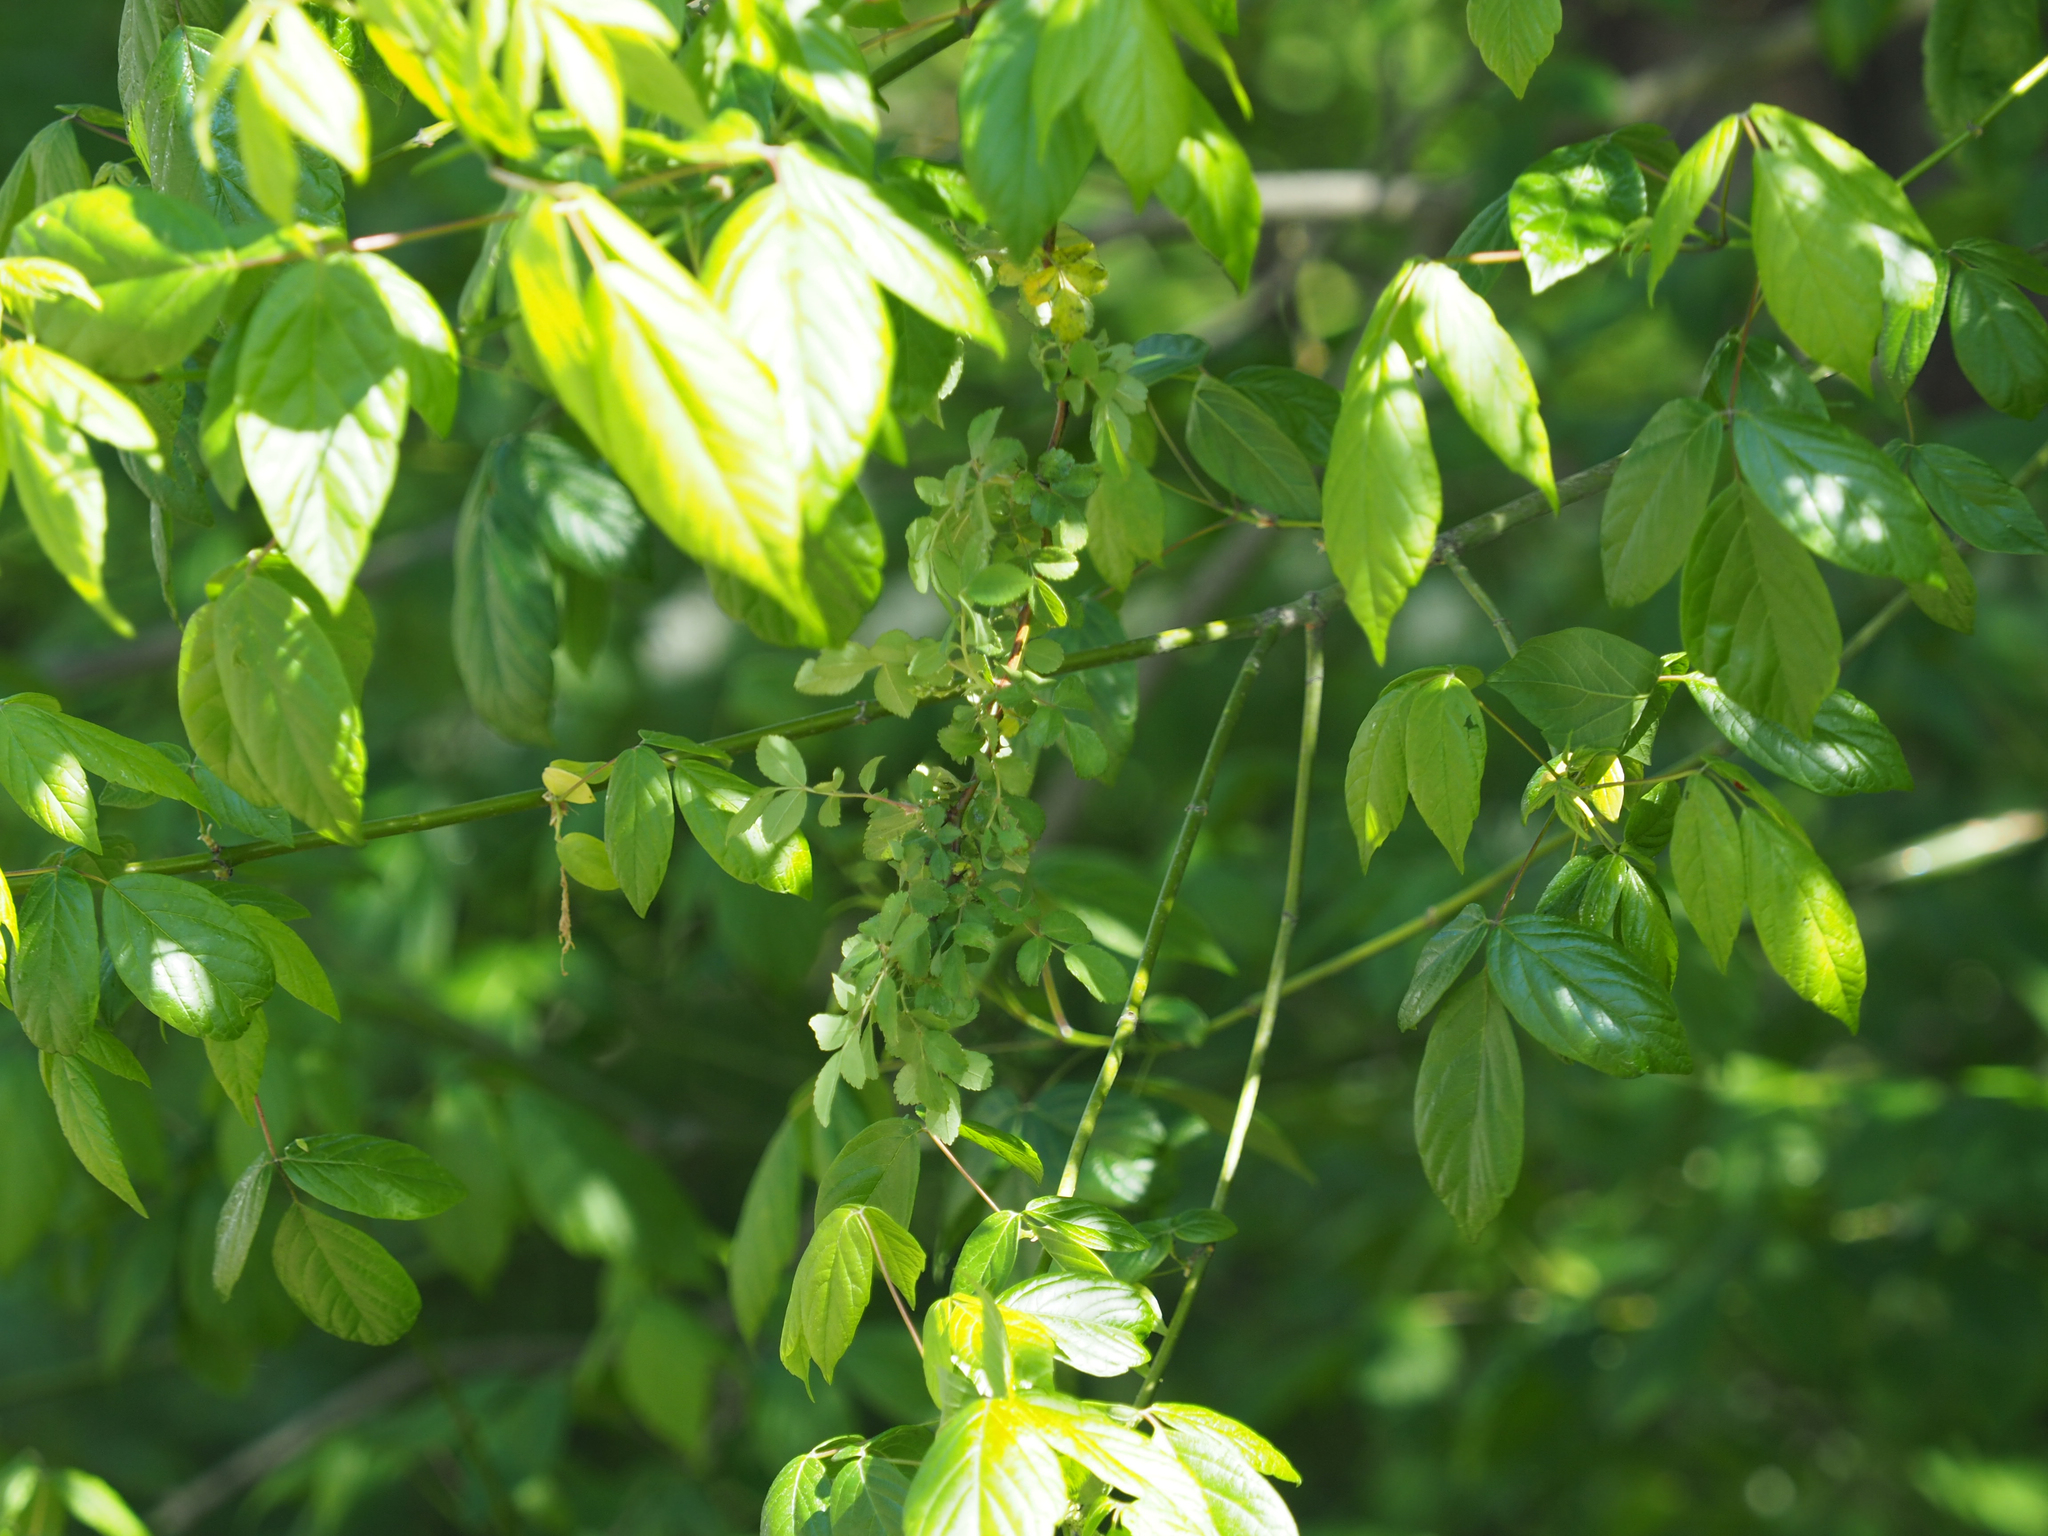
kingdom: Plantae
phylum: Tracheophyta
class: Magnoliopsida
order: Sapindales
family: Sapindaceae
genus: Acer
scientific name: Acer negundo
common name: Ashleaf maple
